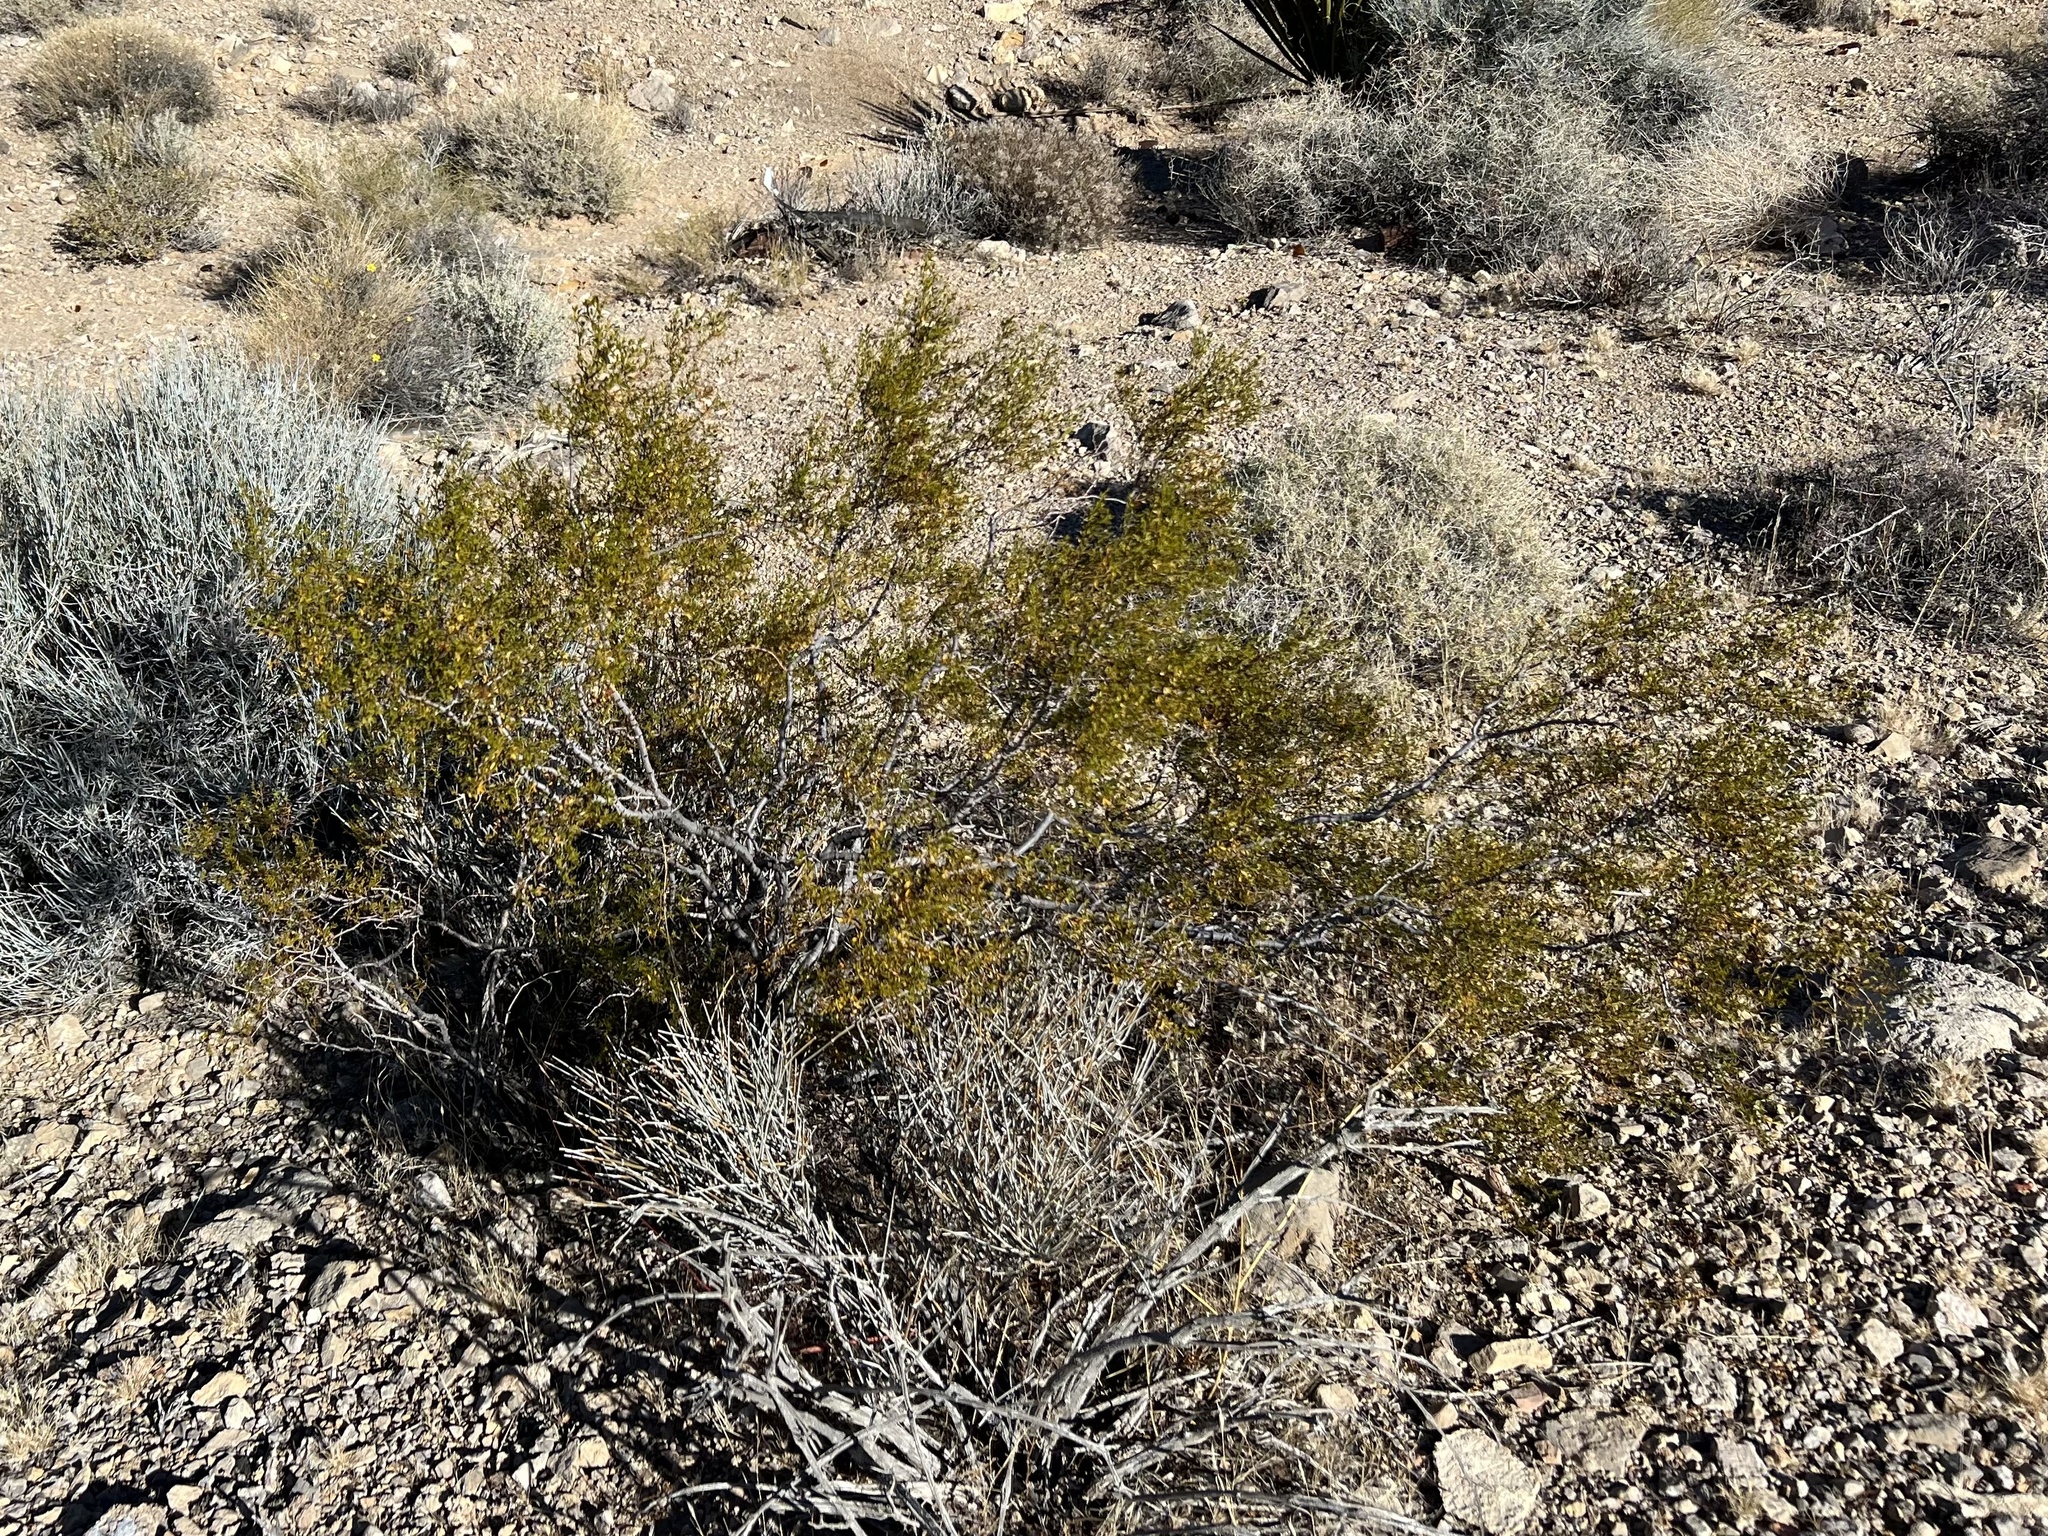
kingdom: Plantae
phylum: Tracheophyta
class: Magnoliopsida
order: Zygophyllales
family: Zygophyllaceae
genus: Larrea
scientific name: Larrea tridentata
